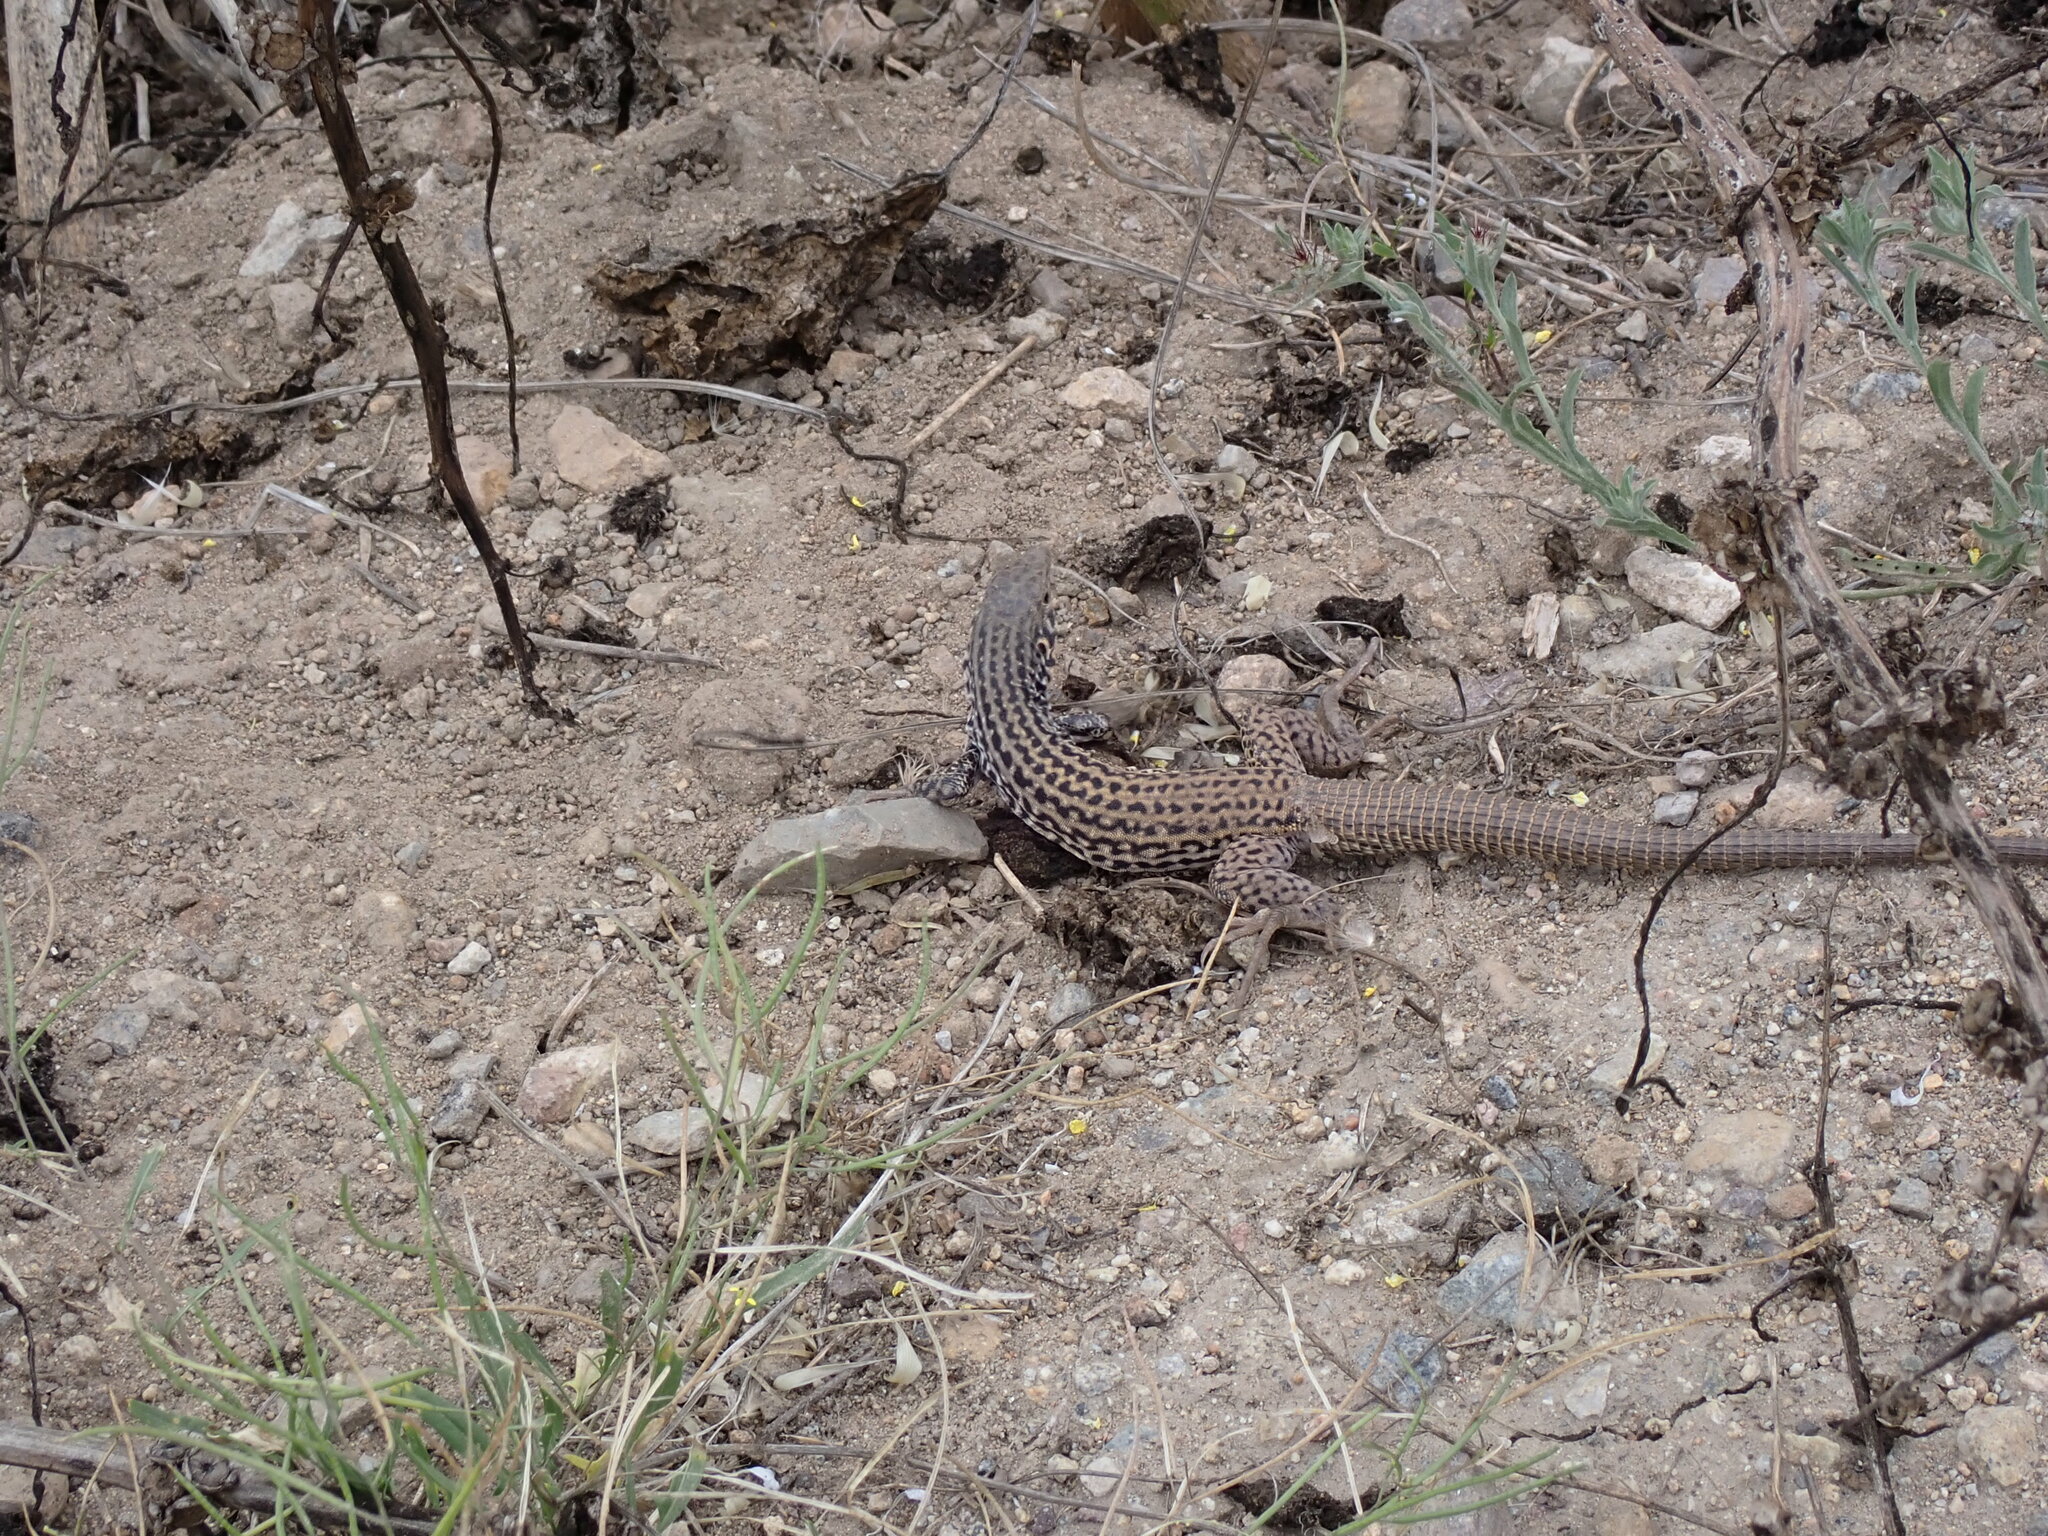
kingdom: Animalia
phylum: Chordata
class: Squamata
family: Teiidae
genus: Aspidoscelis
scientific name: Aspidoscelis tigris
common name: Tiger whiptail
